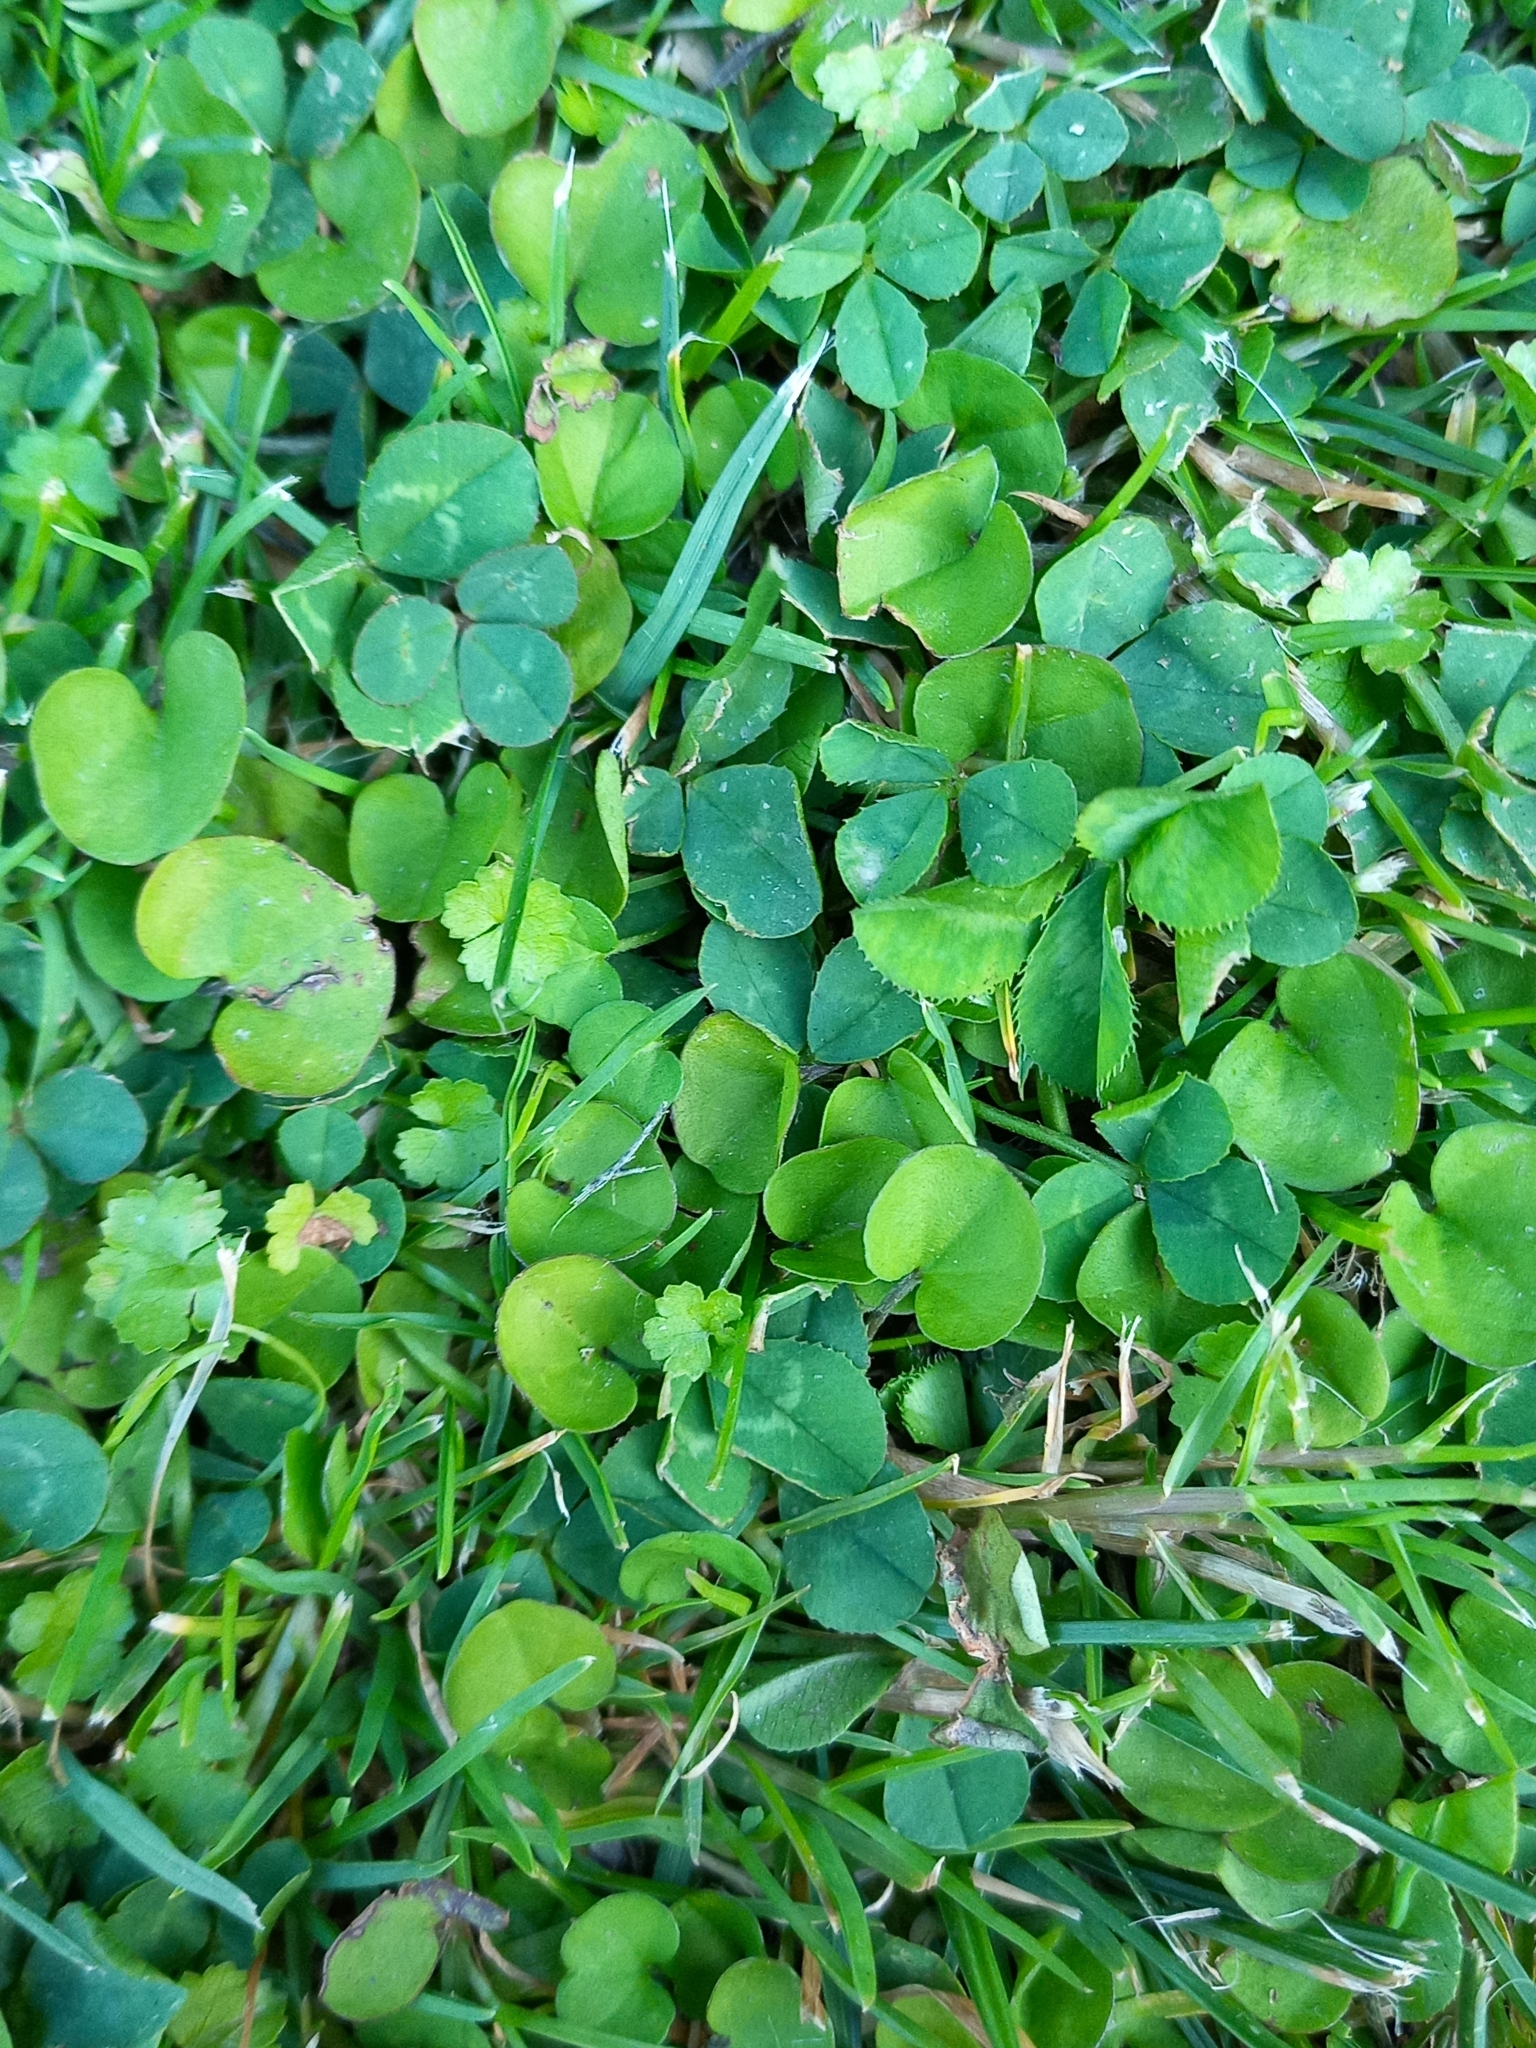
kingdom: Plantae
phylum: Tracheophyta
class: Magnoliopsida
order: Solanales
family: Convolvulaceae
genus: Dichondra
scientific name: Dichondra micrantha
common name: Kidneyweed
